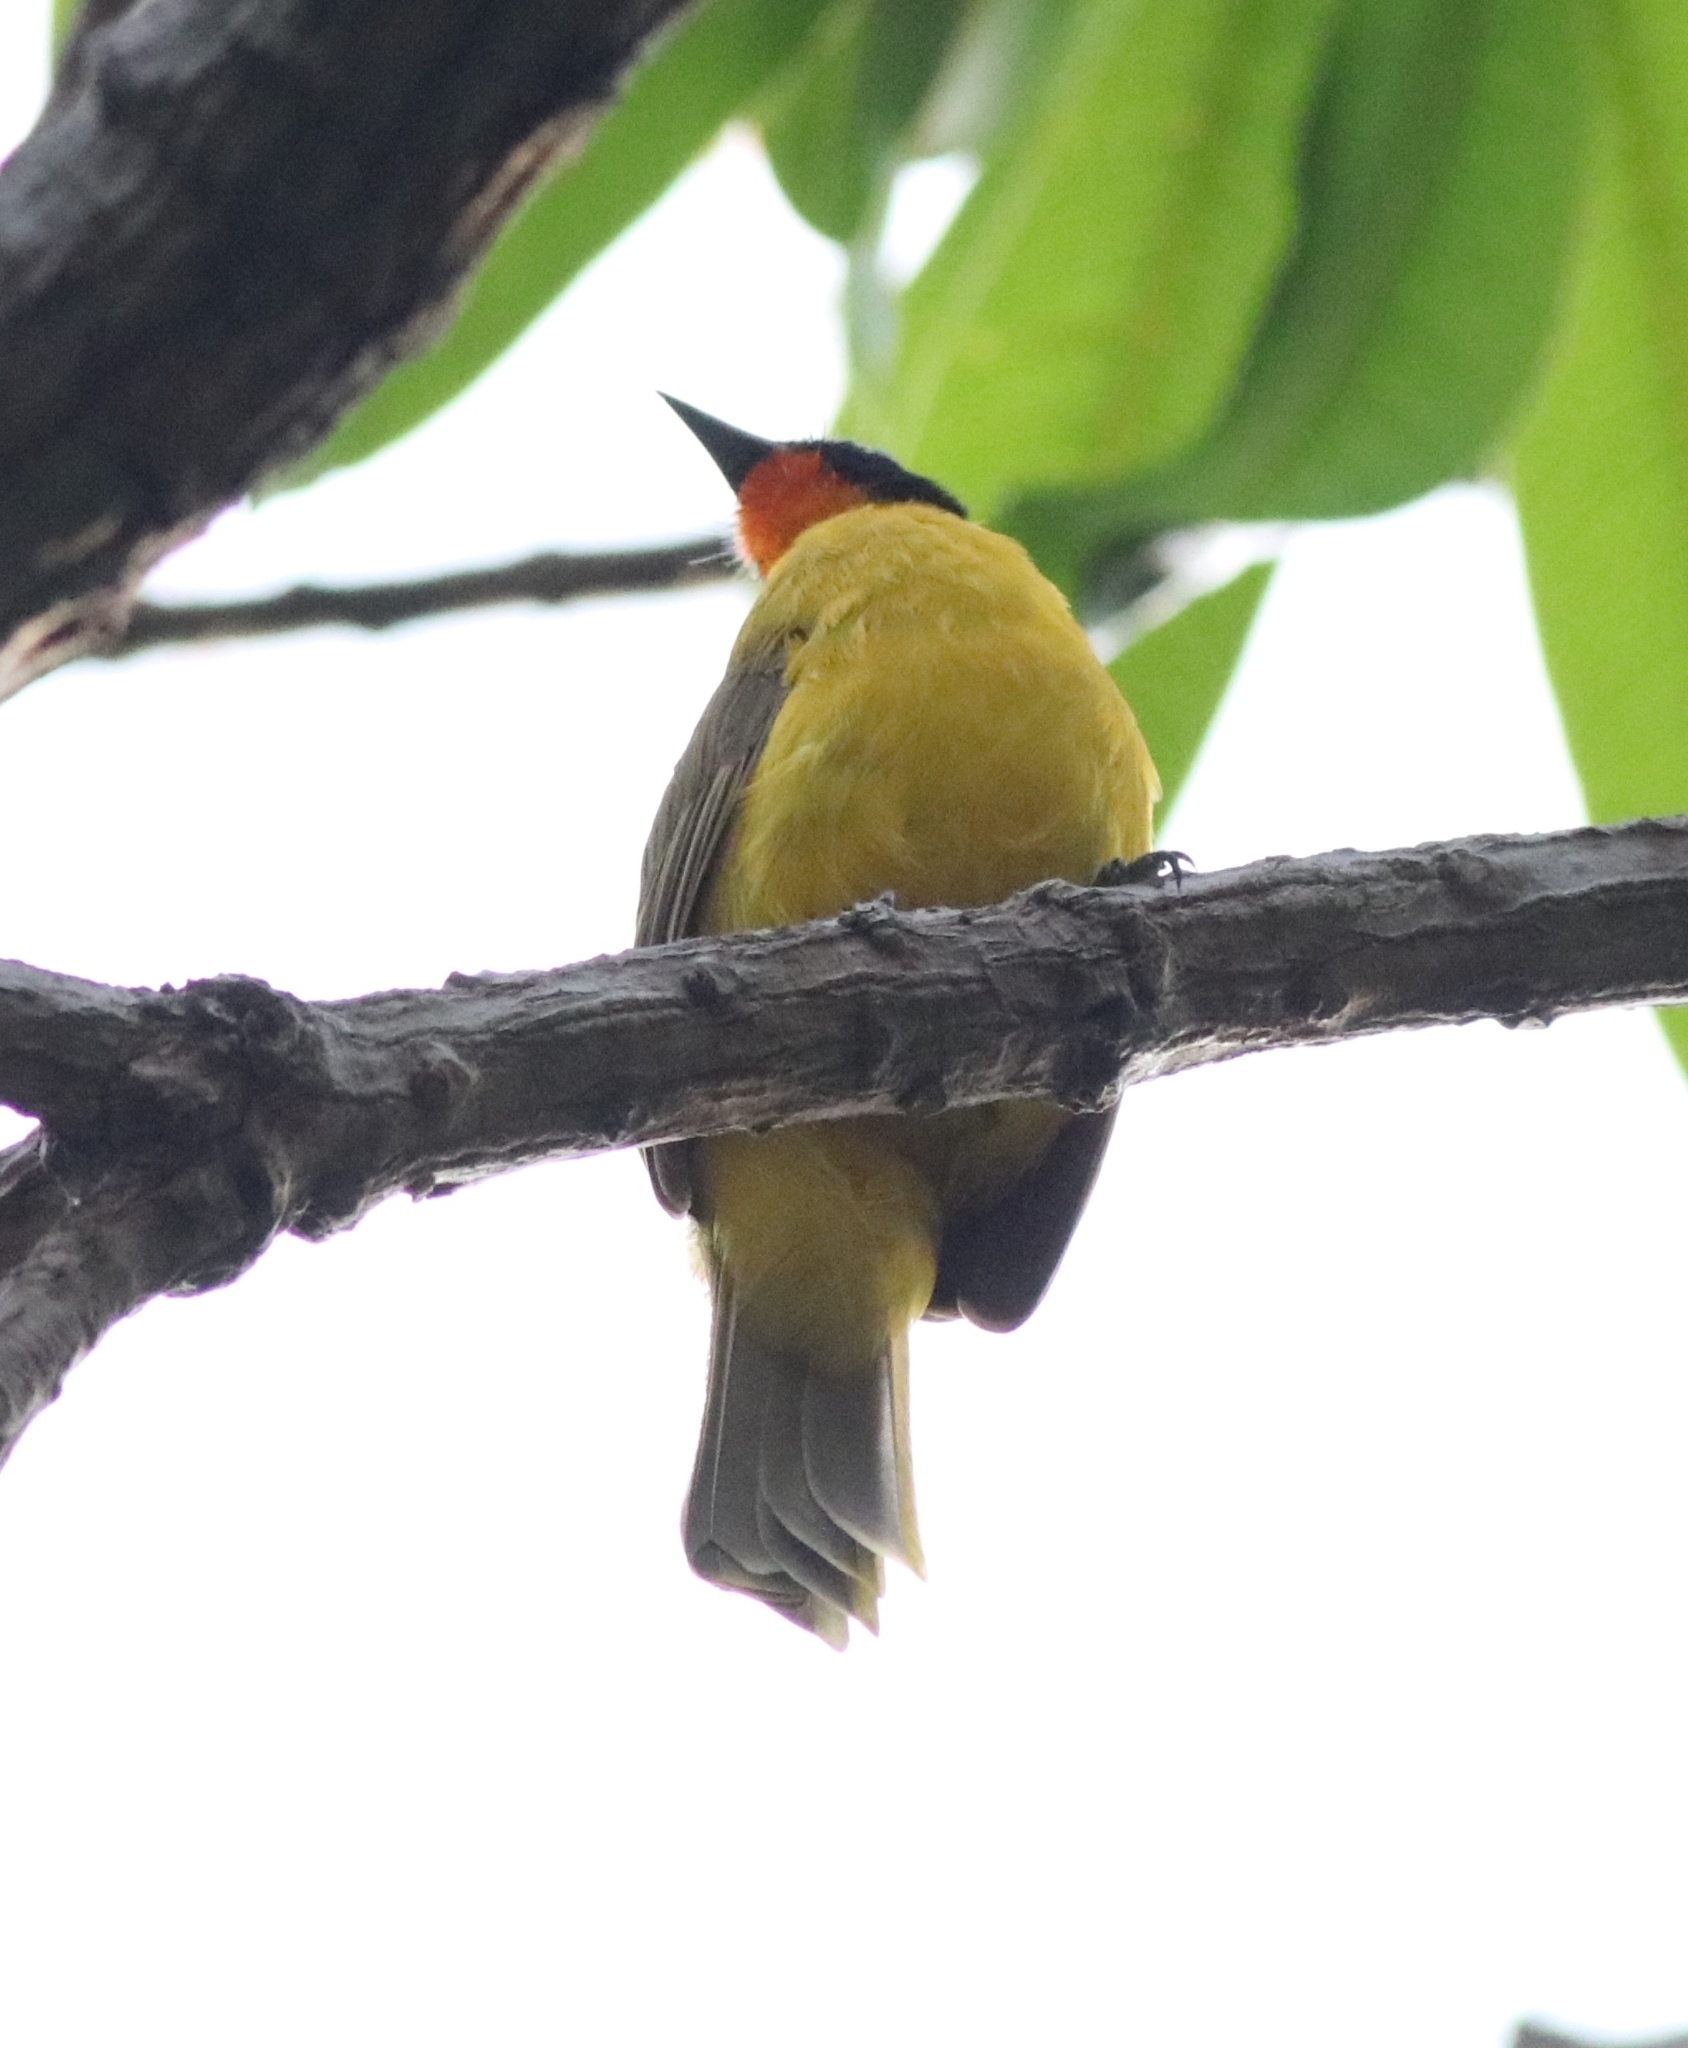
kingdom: Animalia
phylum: Chordata
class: Aves
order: Passeriformes
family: Pycnonotidae
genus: Pycnonotus
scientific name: Pycnonotus gularis
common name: Flame-throated bulbul
